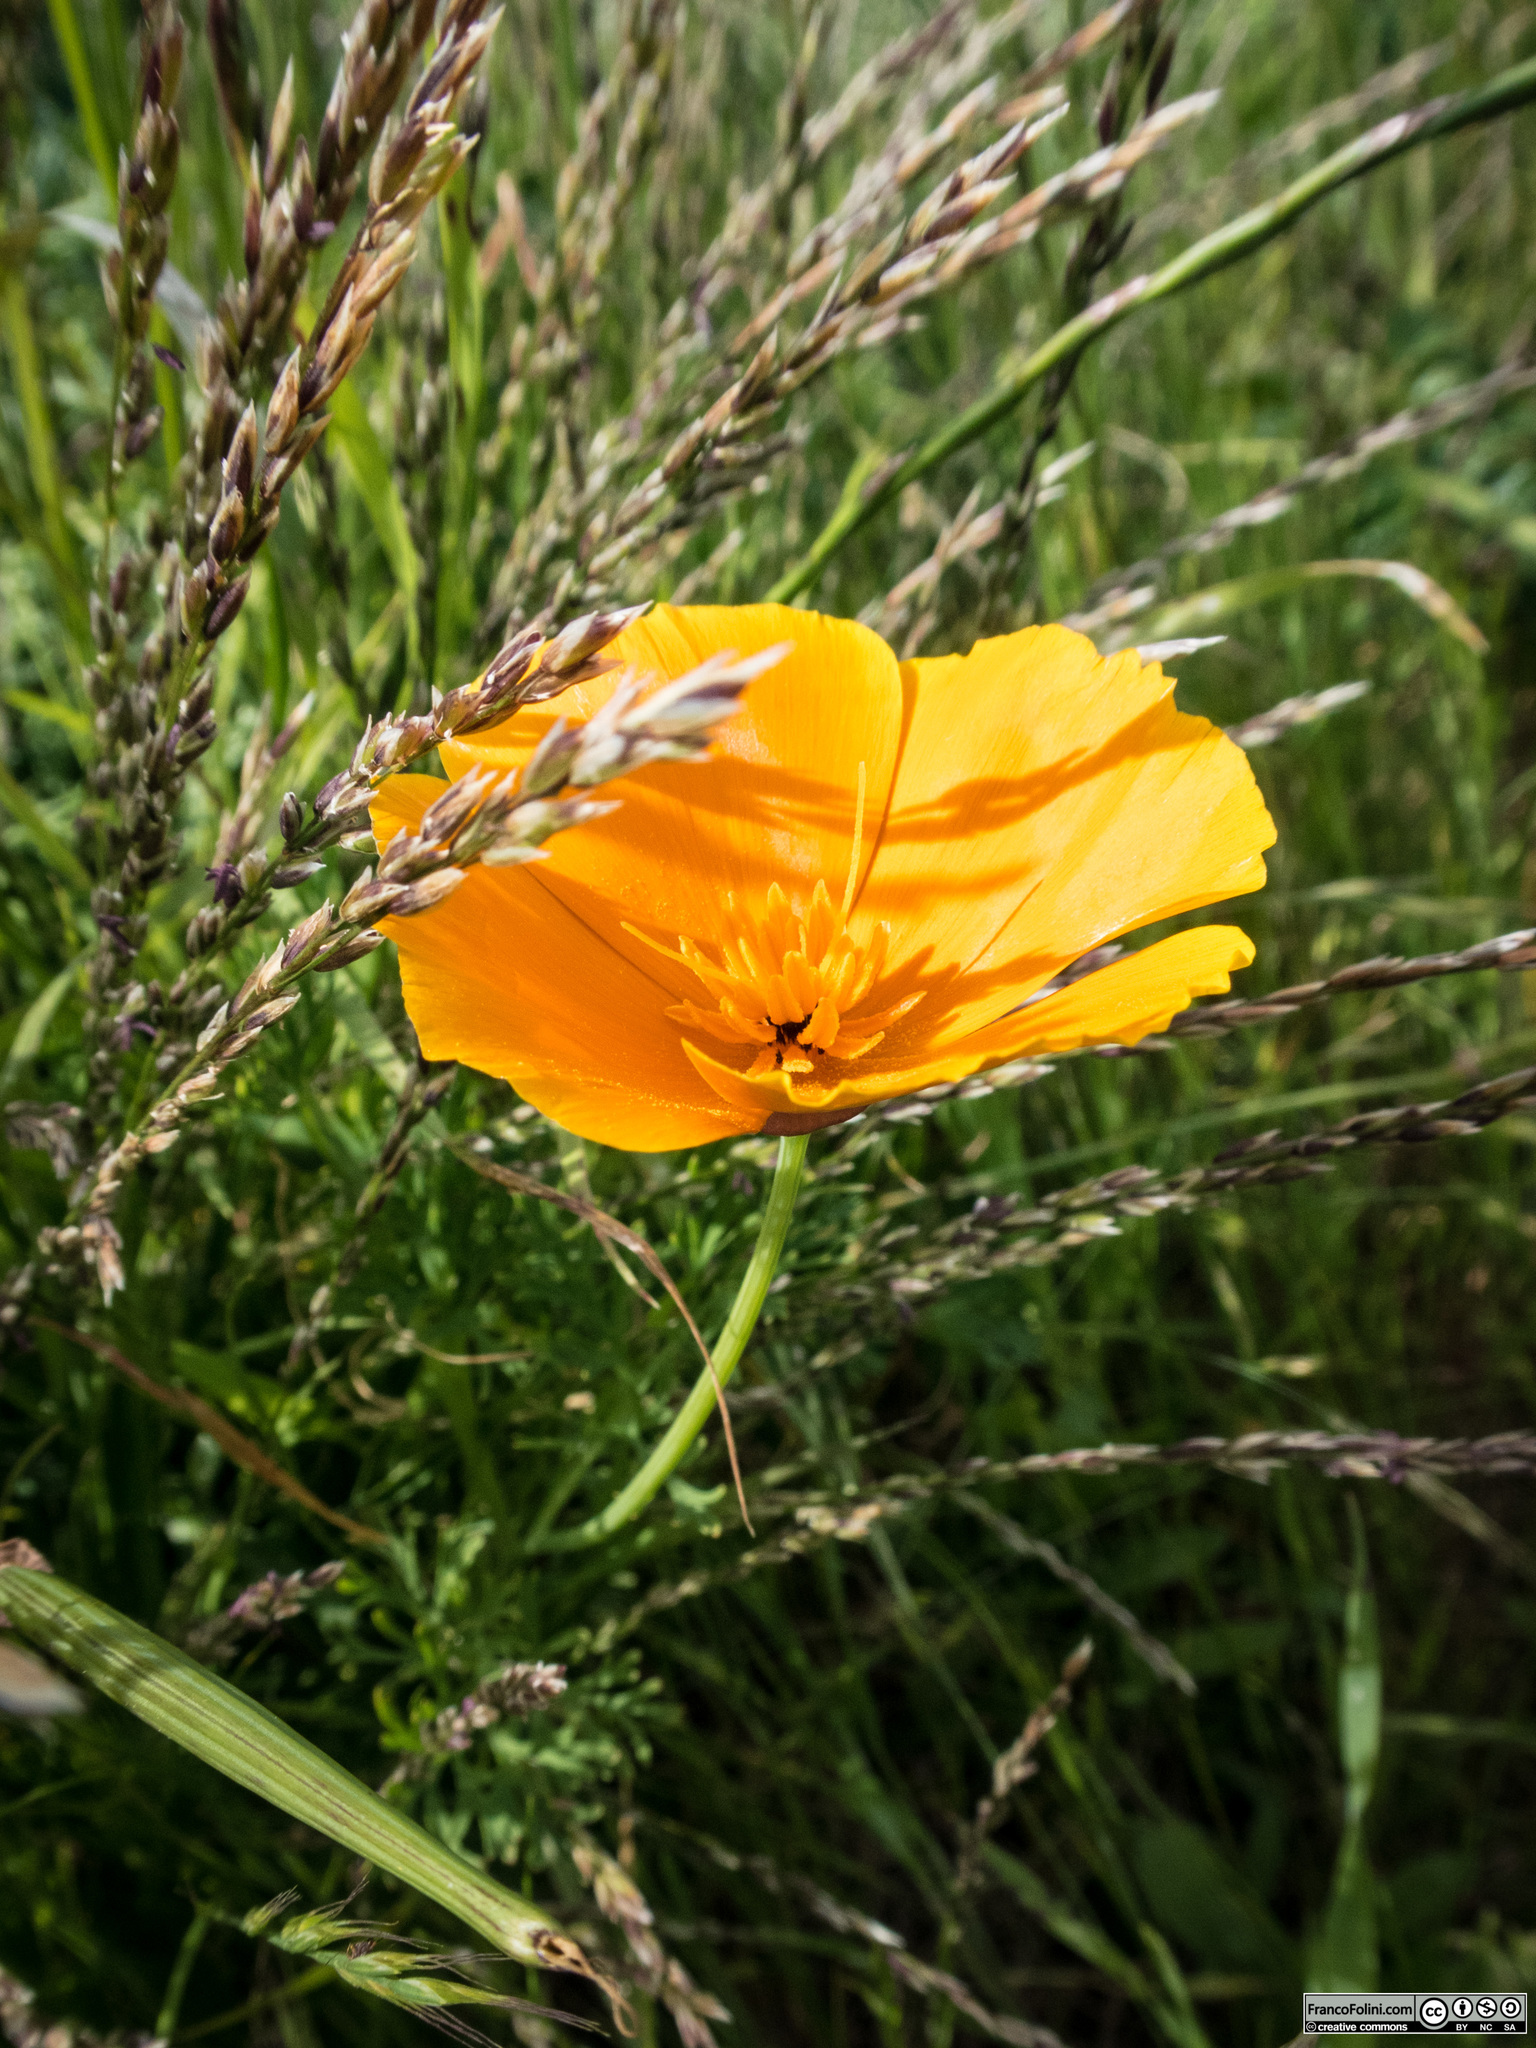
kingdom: Plantae
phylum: Tracheophyta
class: Magnoliopsida
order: Ranunculales
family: Papaveraceae
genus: Eschscholzia
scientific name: Eschscholzia californica
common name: California poppy
